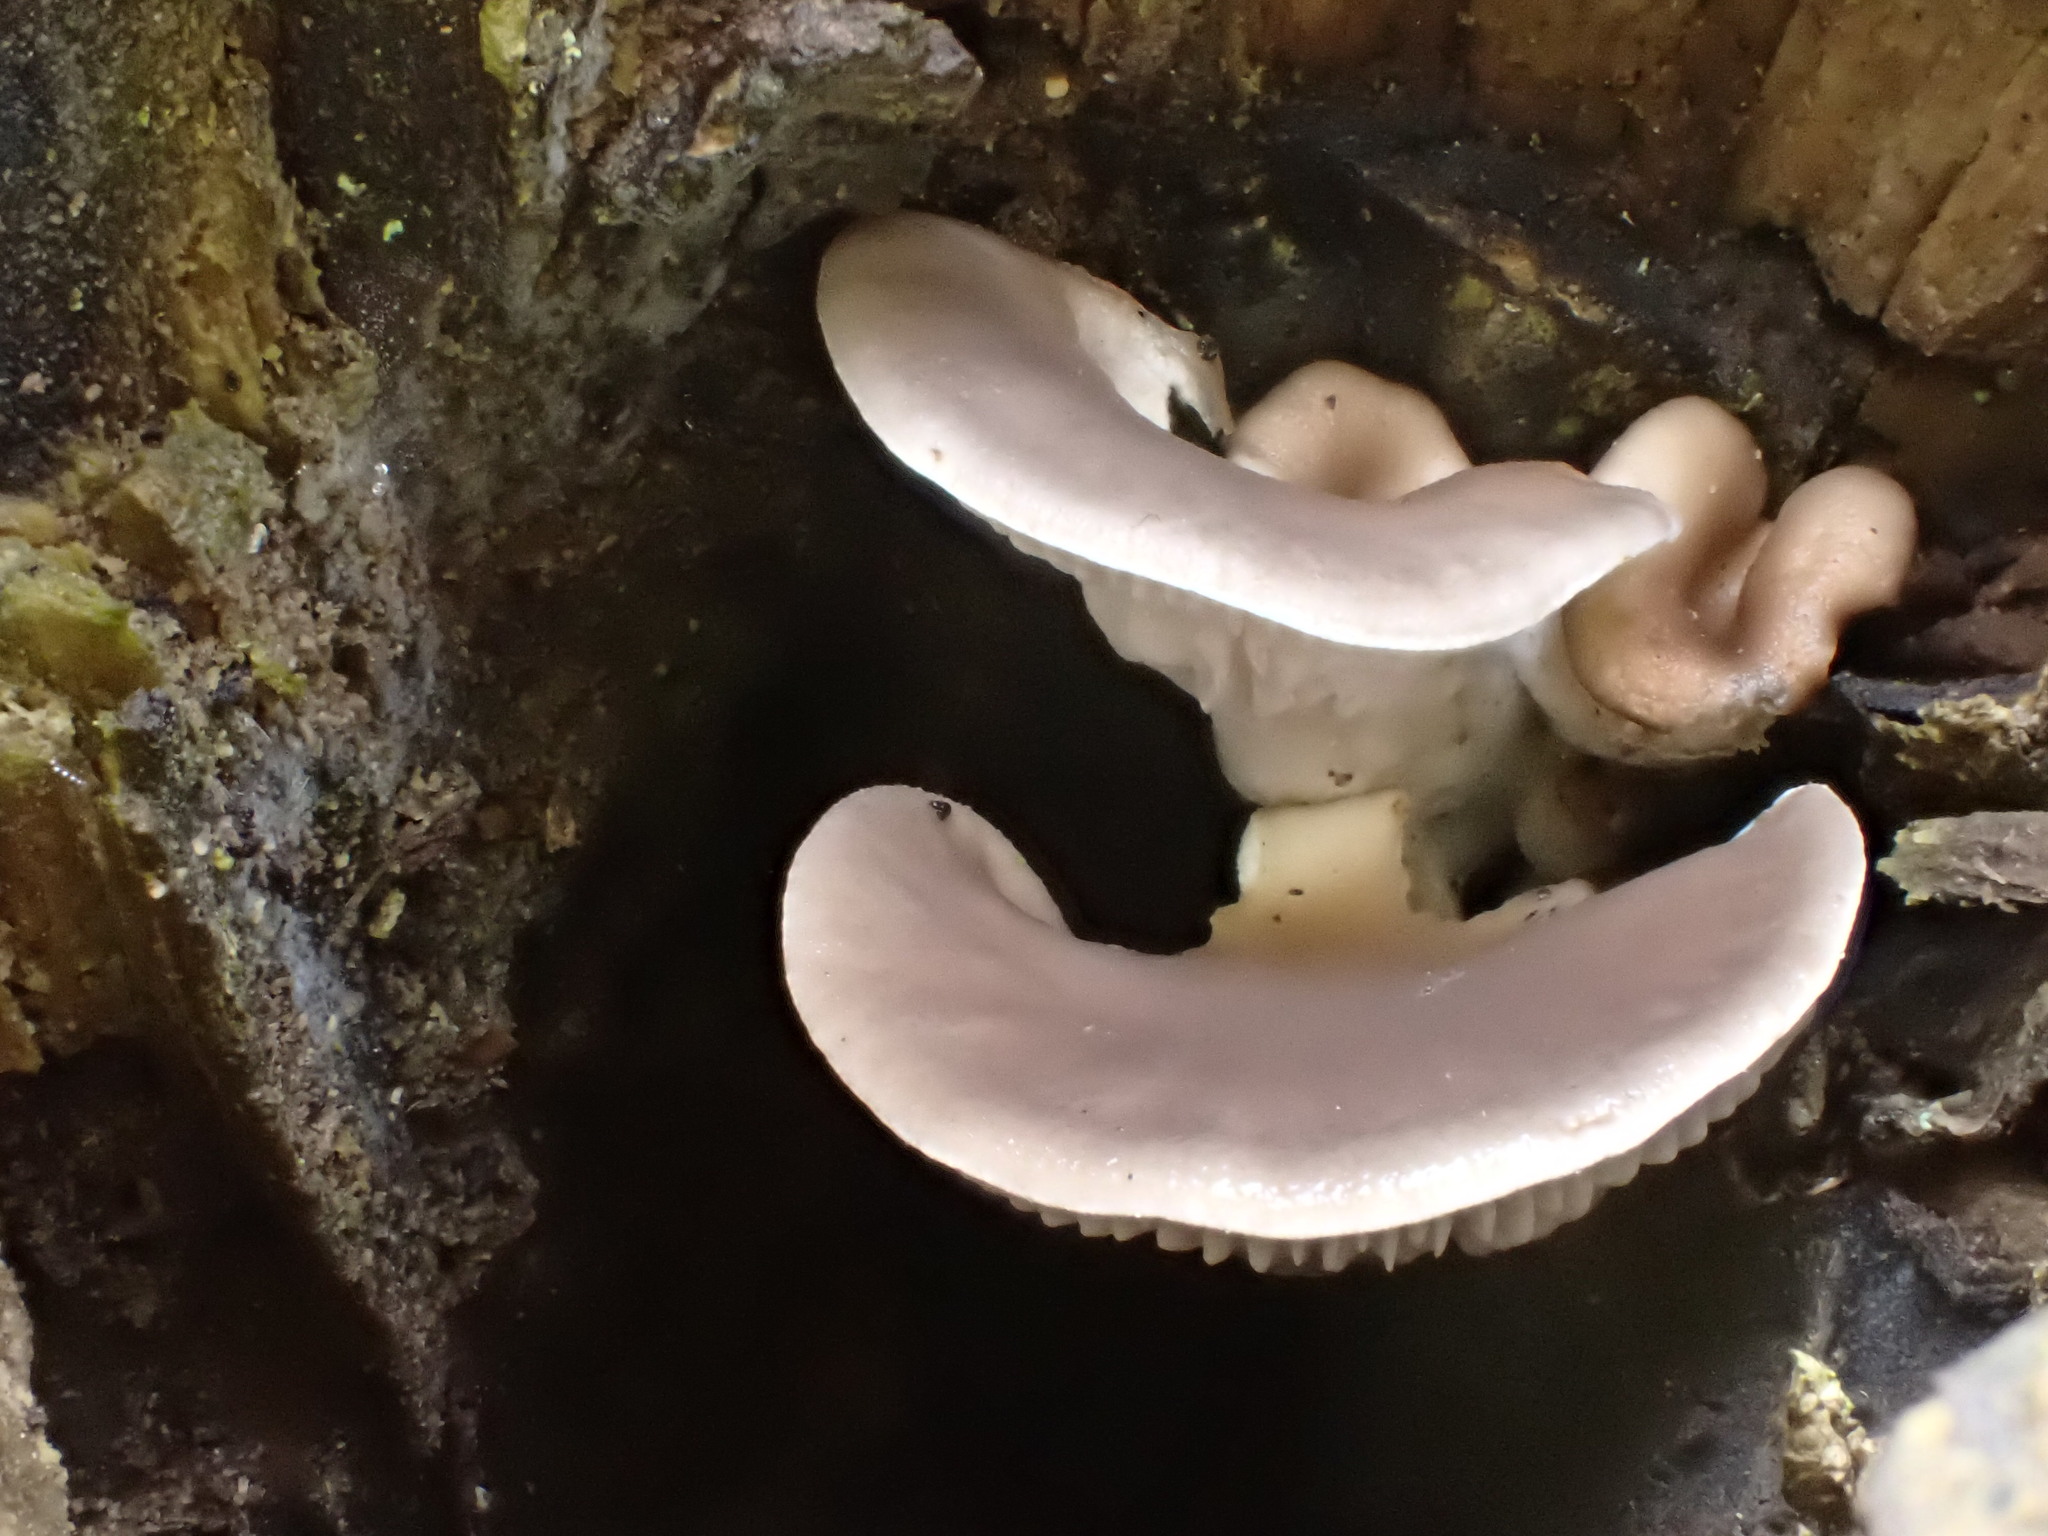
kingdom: Fungi
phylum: Basidiomycota
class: Agaricomycetes
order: Agaricales
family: Pleurotaceae
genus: Pleurotus
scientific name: Pleurotus ostreatus
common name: Oyster mushroom
